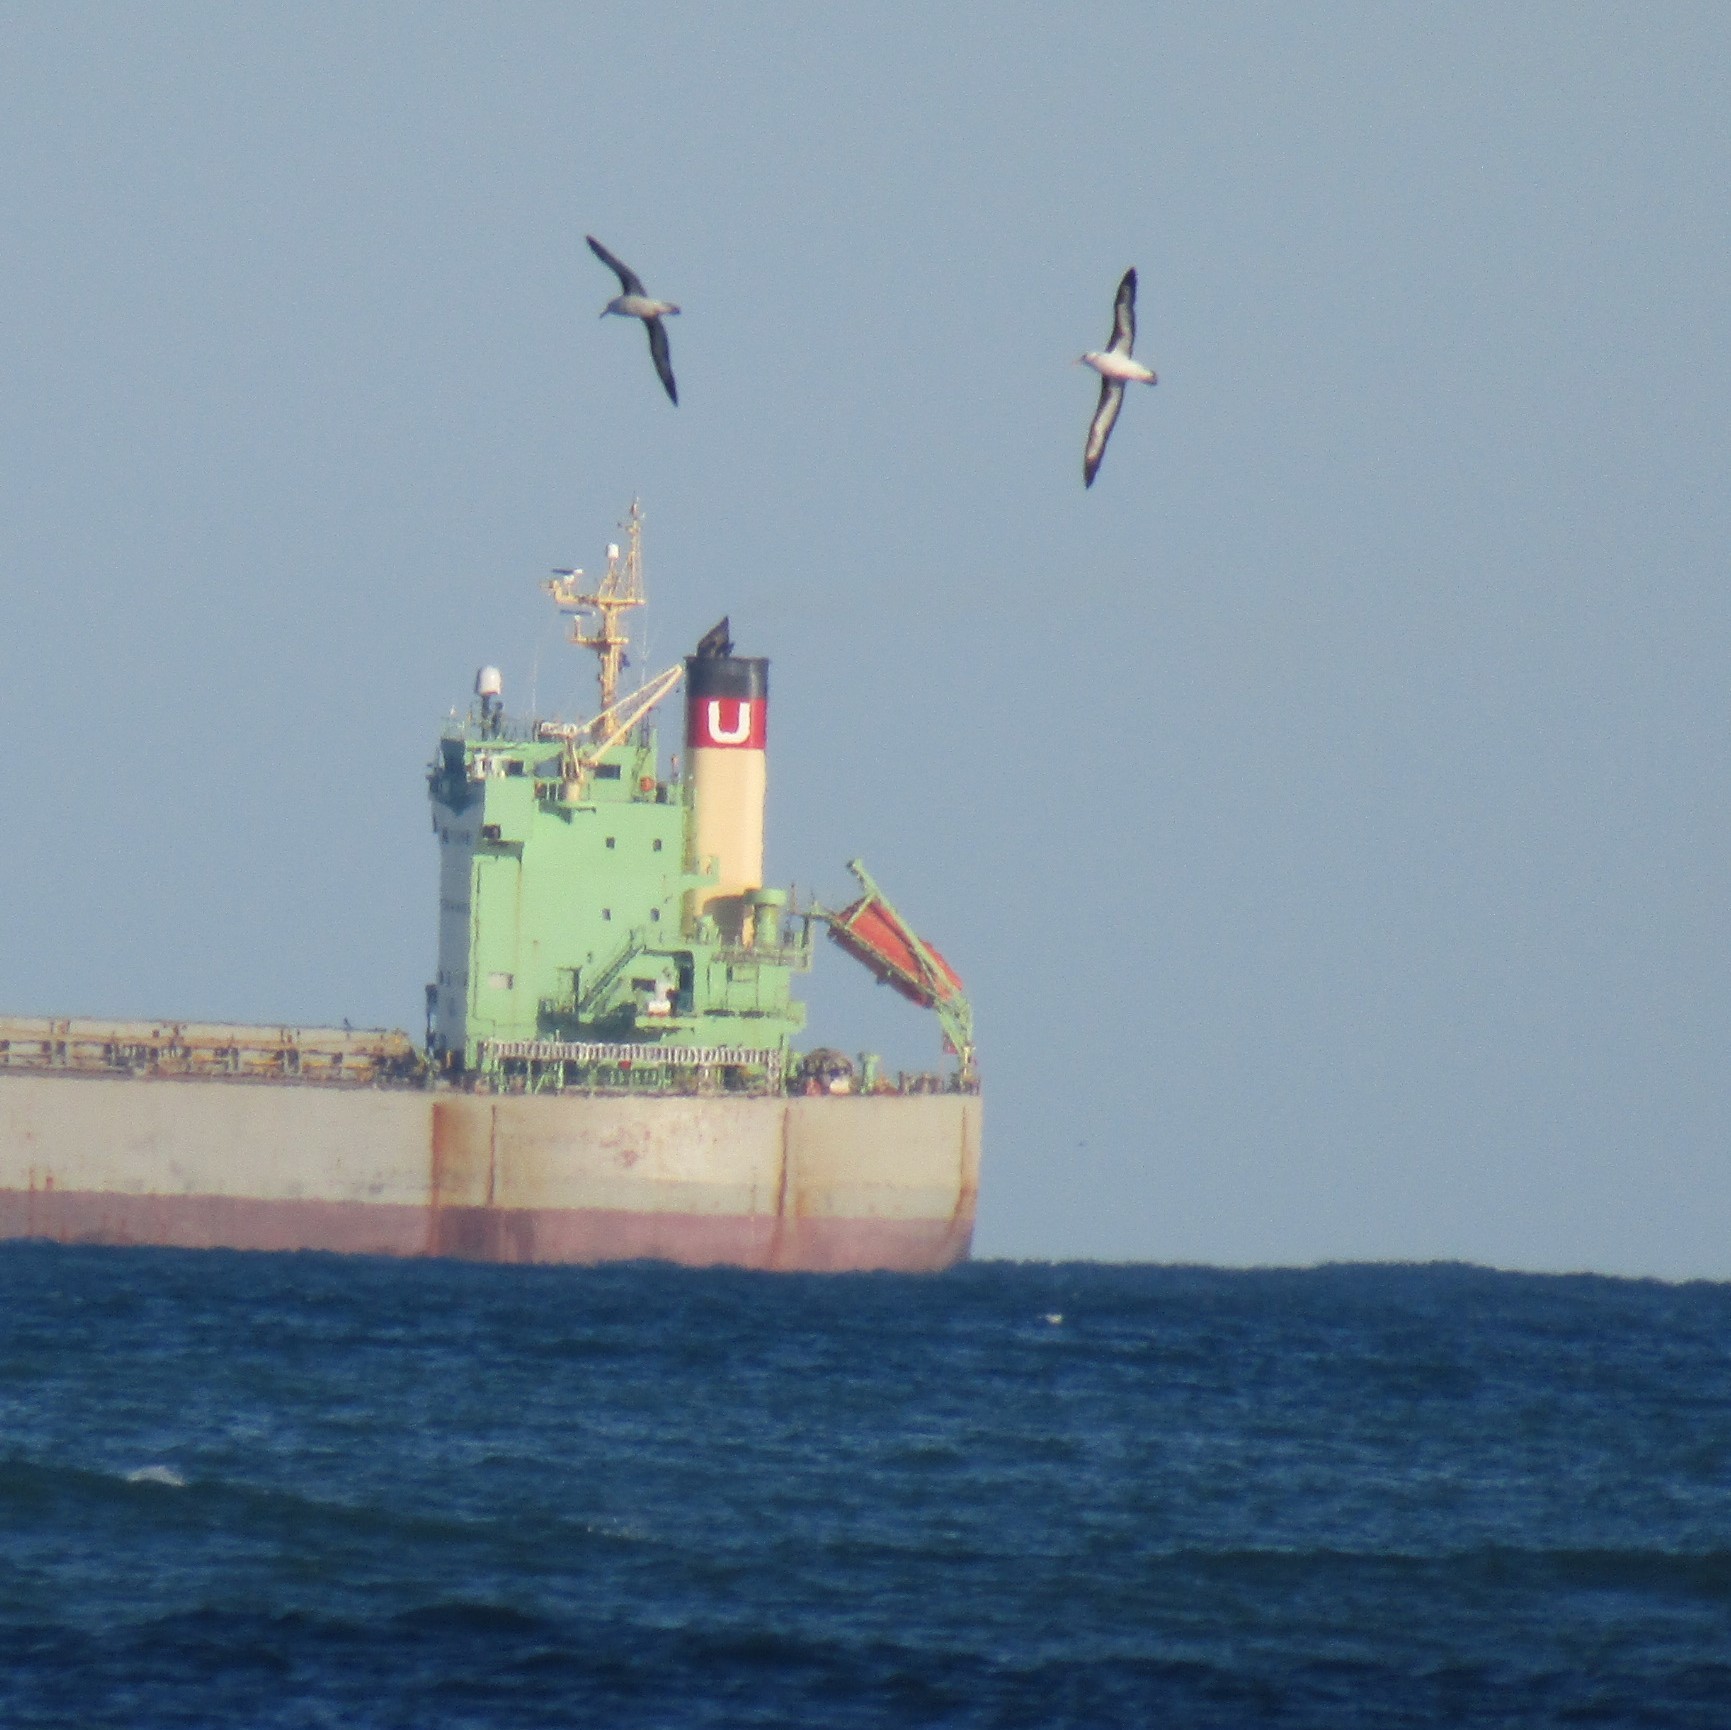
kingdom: Animalia
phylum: Chordata
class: Aves
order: Procellariiformes
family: Diomedeidae
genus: Thalassarche
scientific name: Thalassarche melanophris
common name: Black-browed albatross
